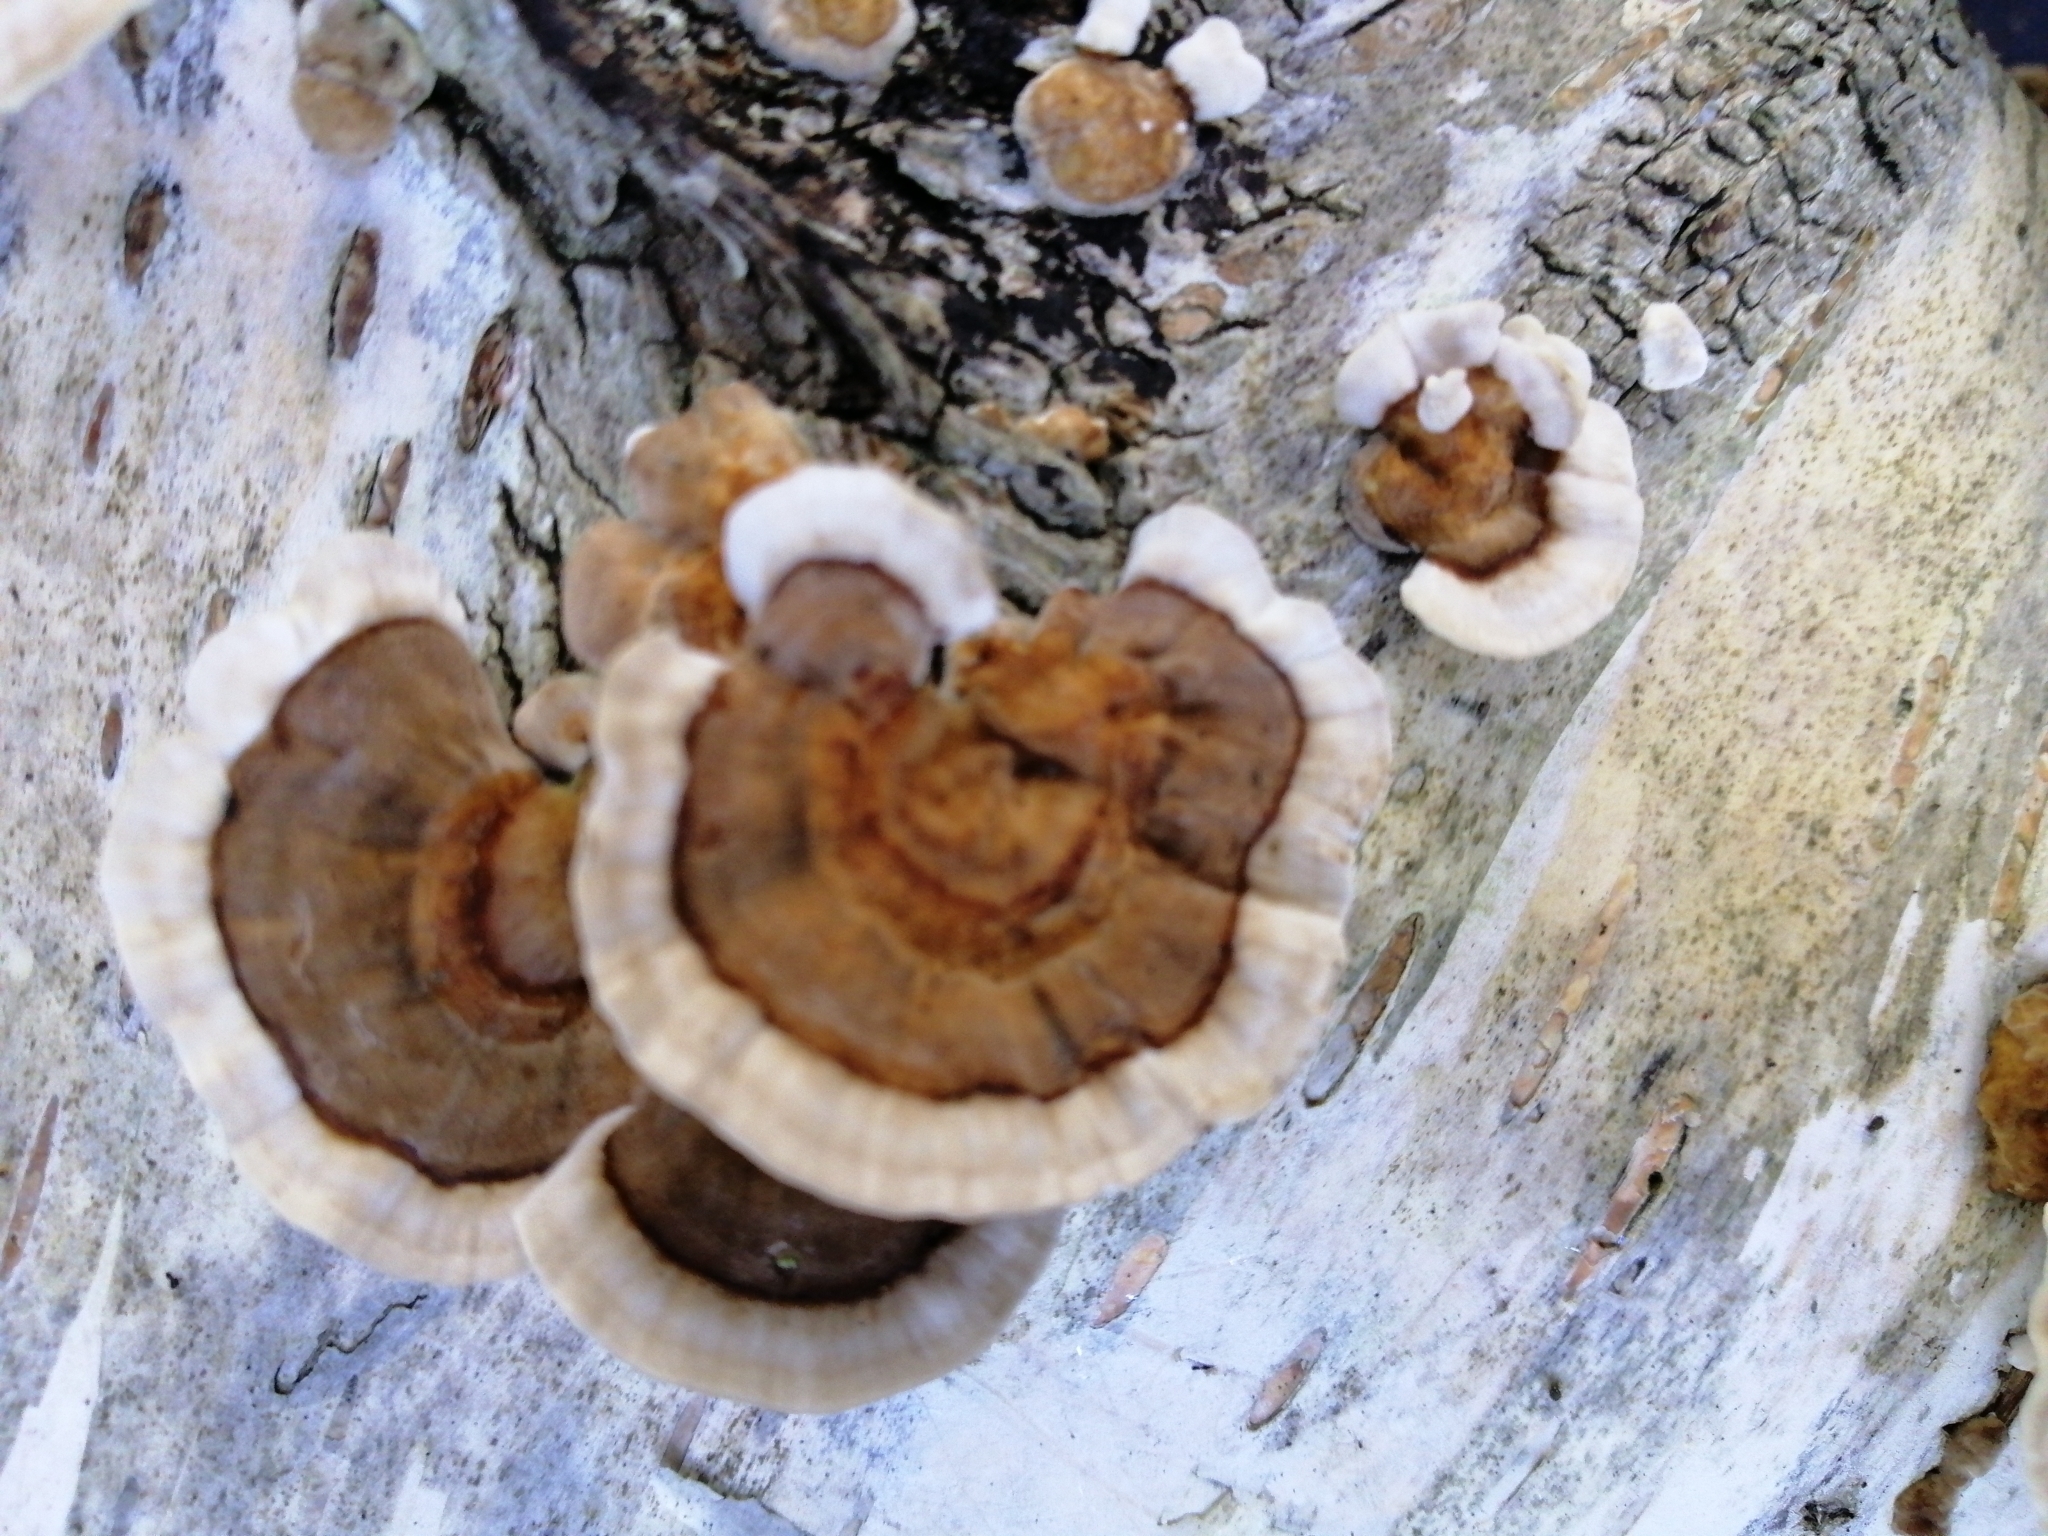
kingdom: Fungi
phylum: Basidiomycota
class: Agaricomycetes
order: Polyporales
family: Polyporaceae
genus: Trametes
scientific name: Trametes versicolor
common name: Turkeytail
